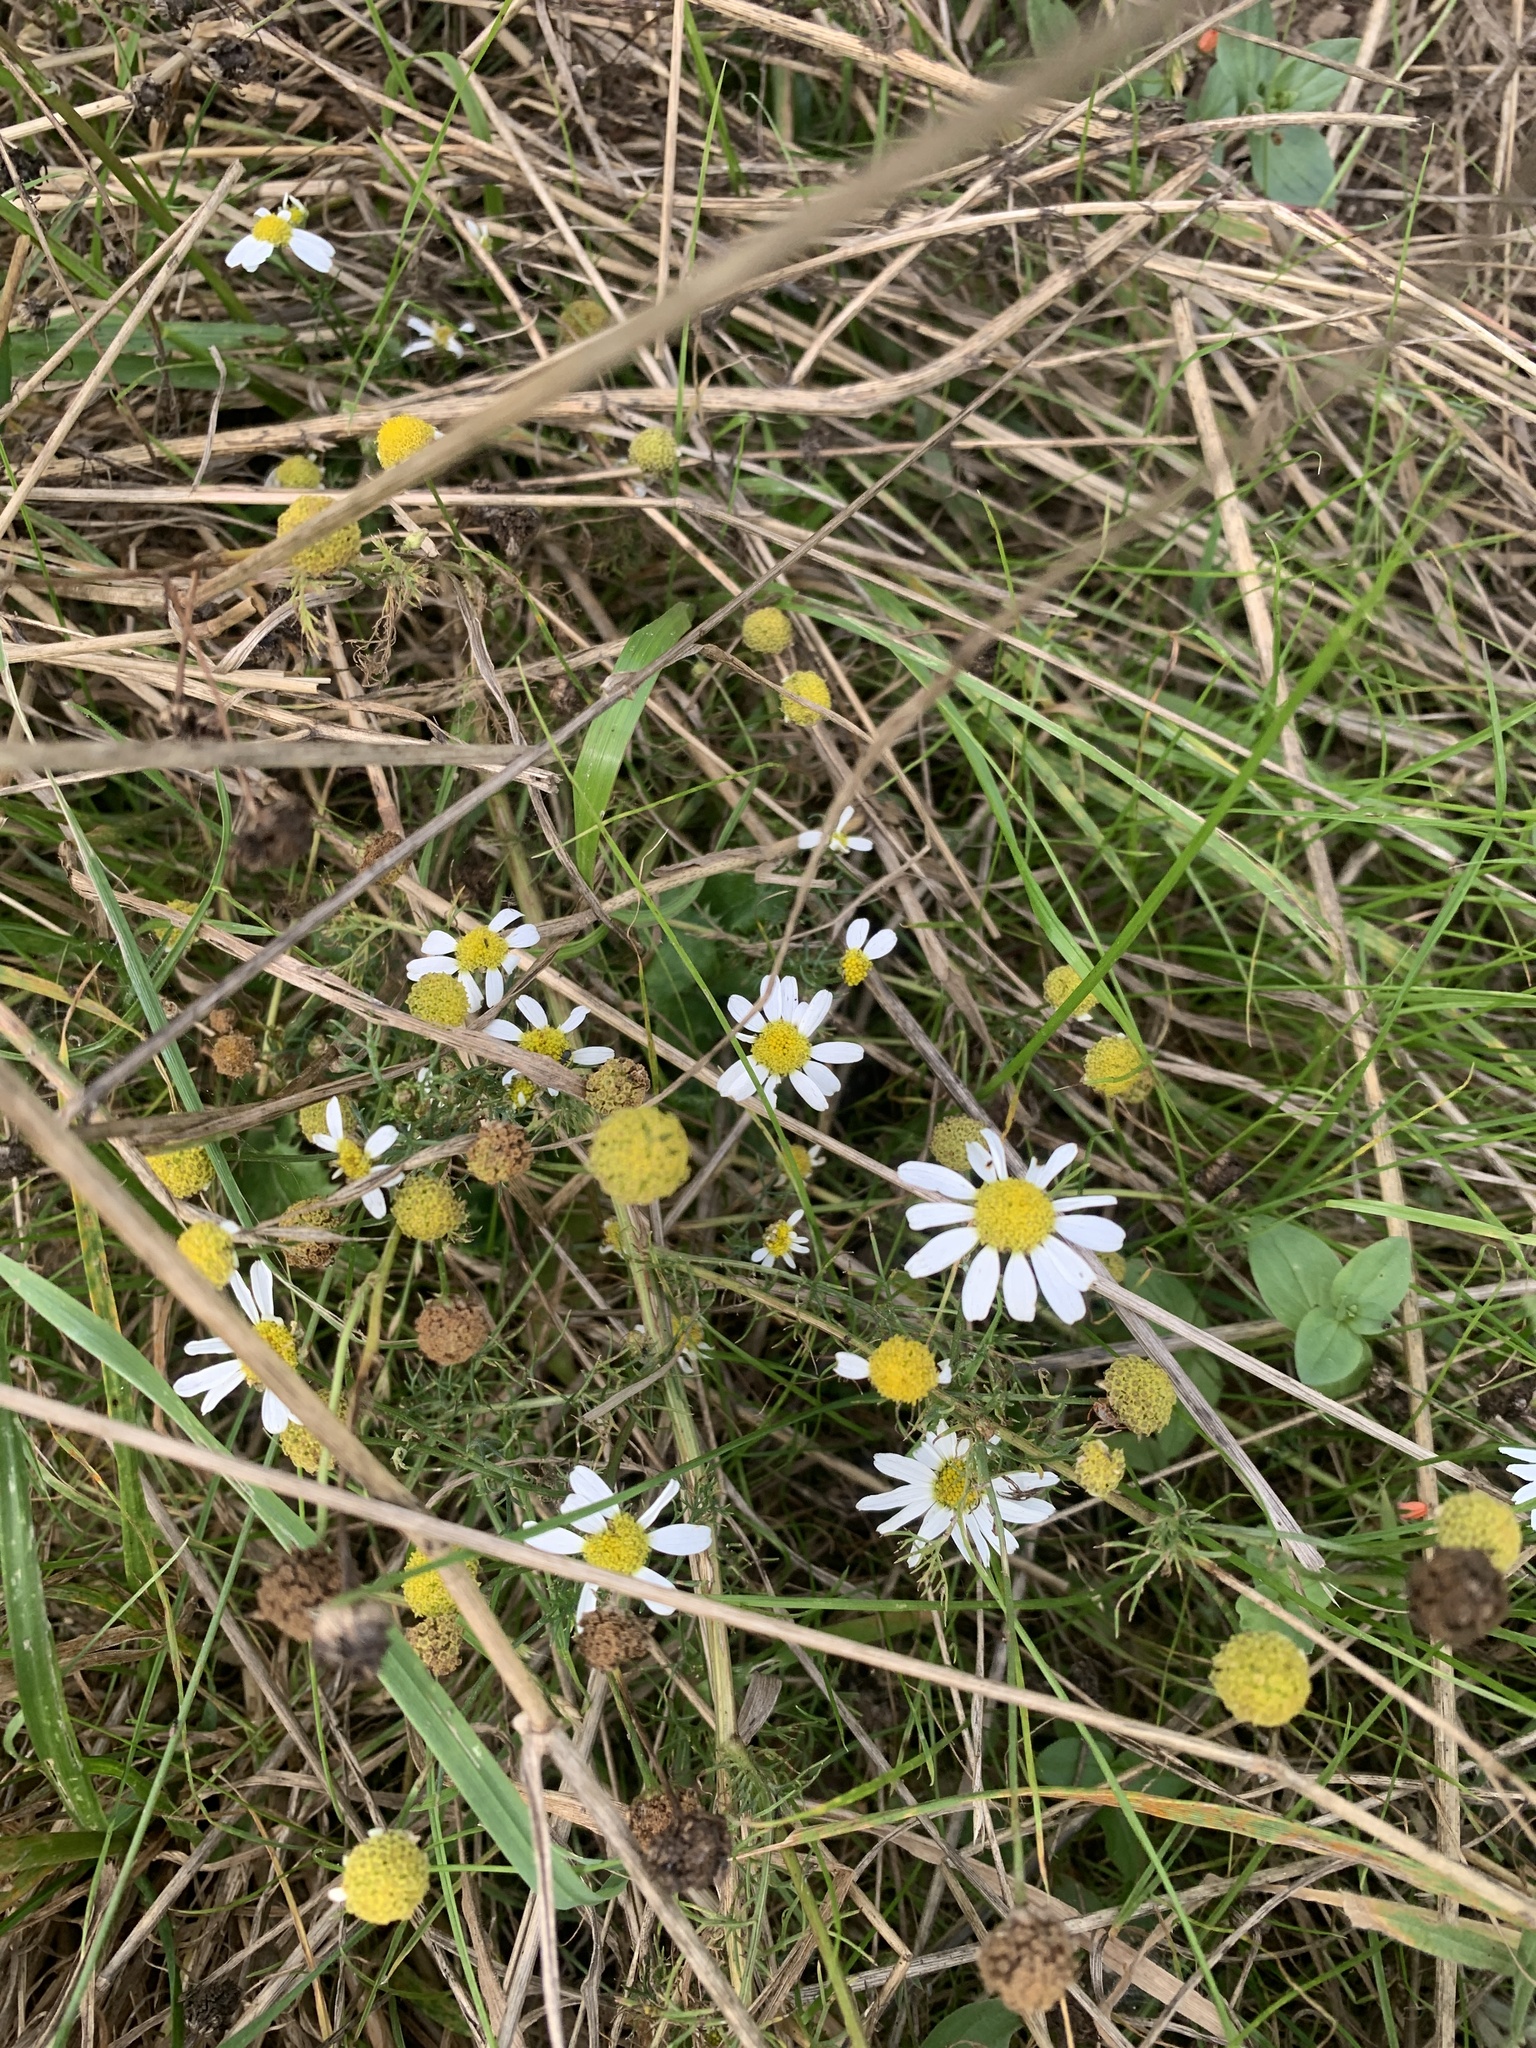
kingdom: Plantae
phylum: Tracheophyta
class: Magnoliopsida
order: Asterales
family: Asteraceae
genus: Tripleurospermum
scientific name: Tripleurospermum inodorum
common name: Scentless mayweed
